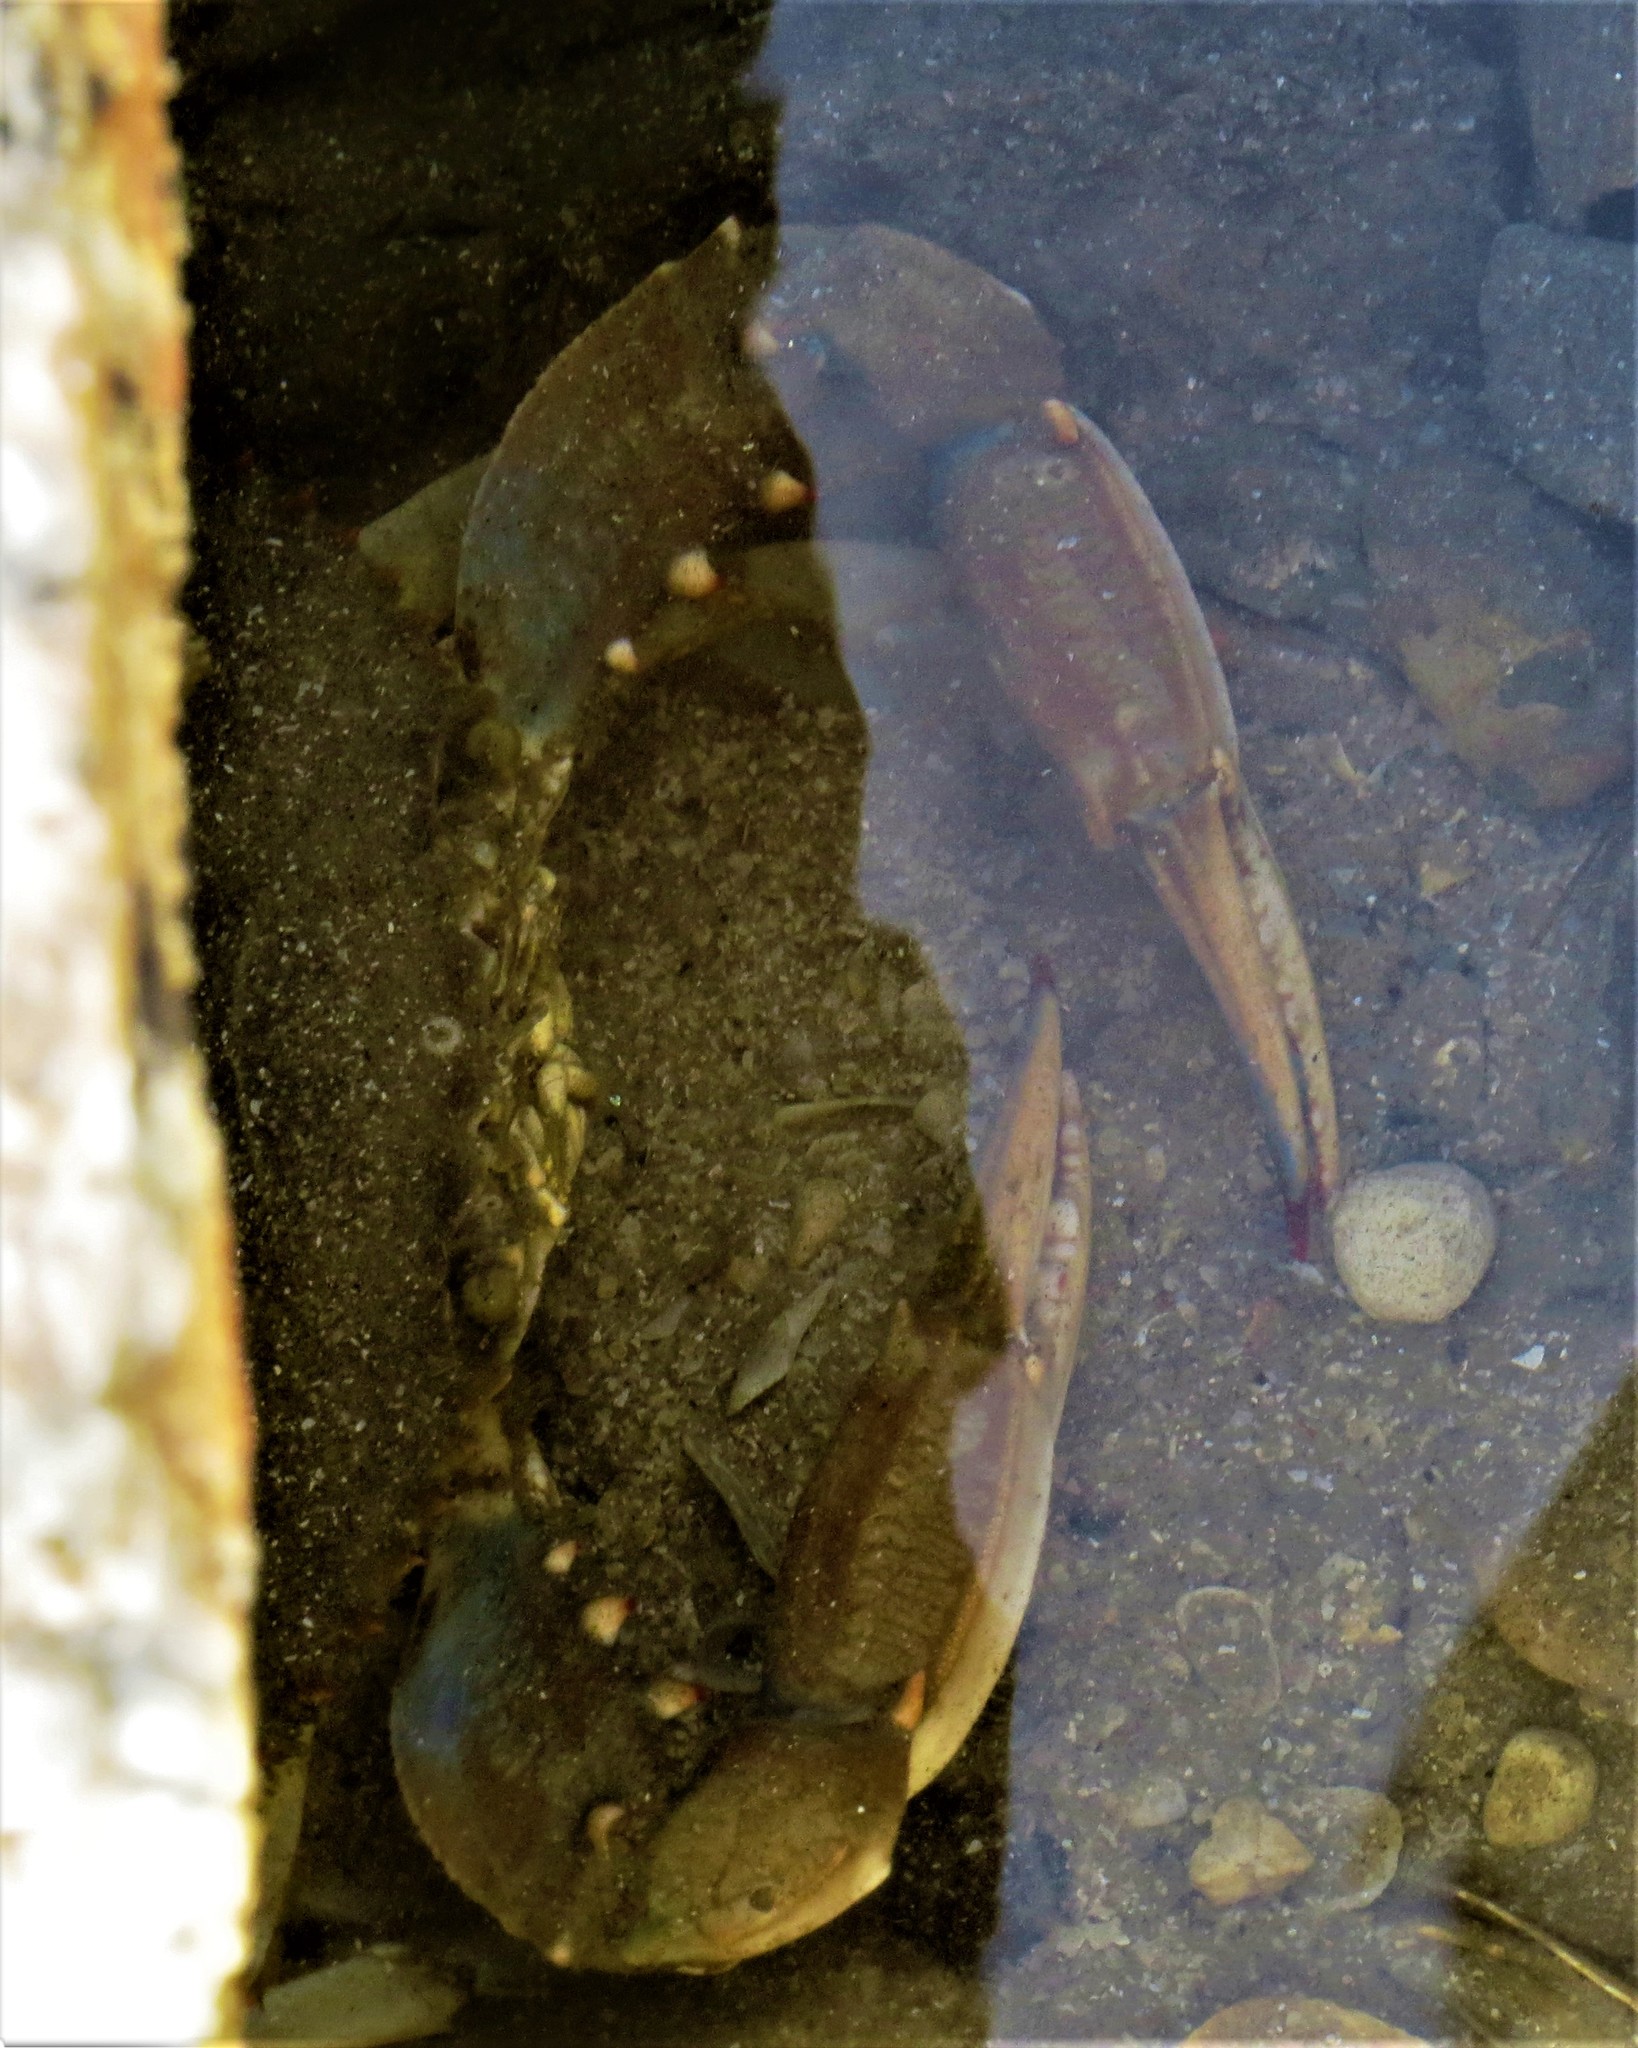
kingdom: Animalia
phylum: Arthropoda
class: Malacostraca
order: Decapoda
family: Portunidae
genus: Callinectes
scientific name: Callinectes sapidus
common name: Blue crab
